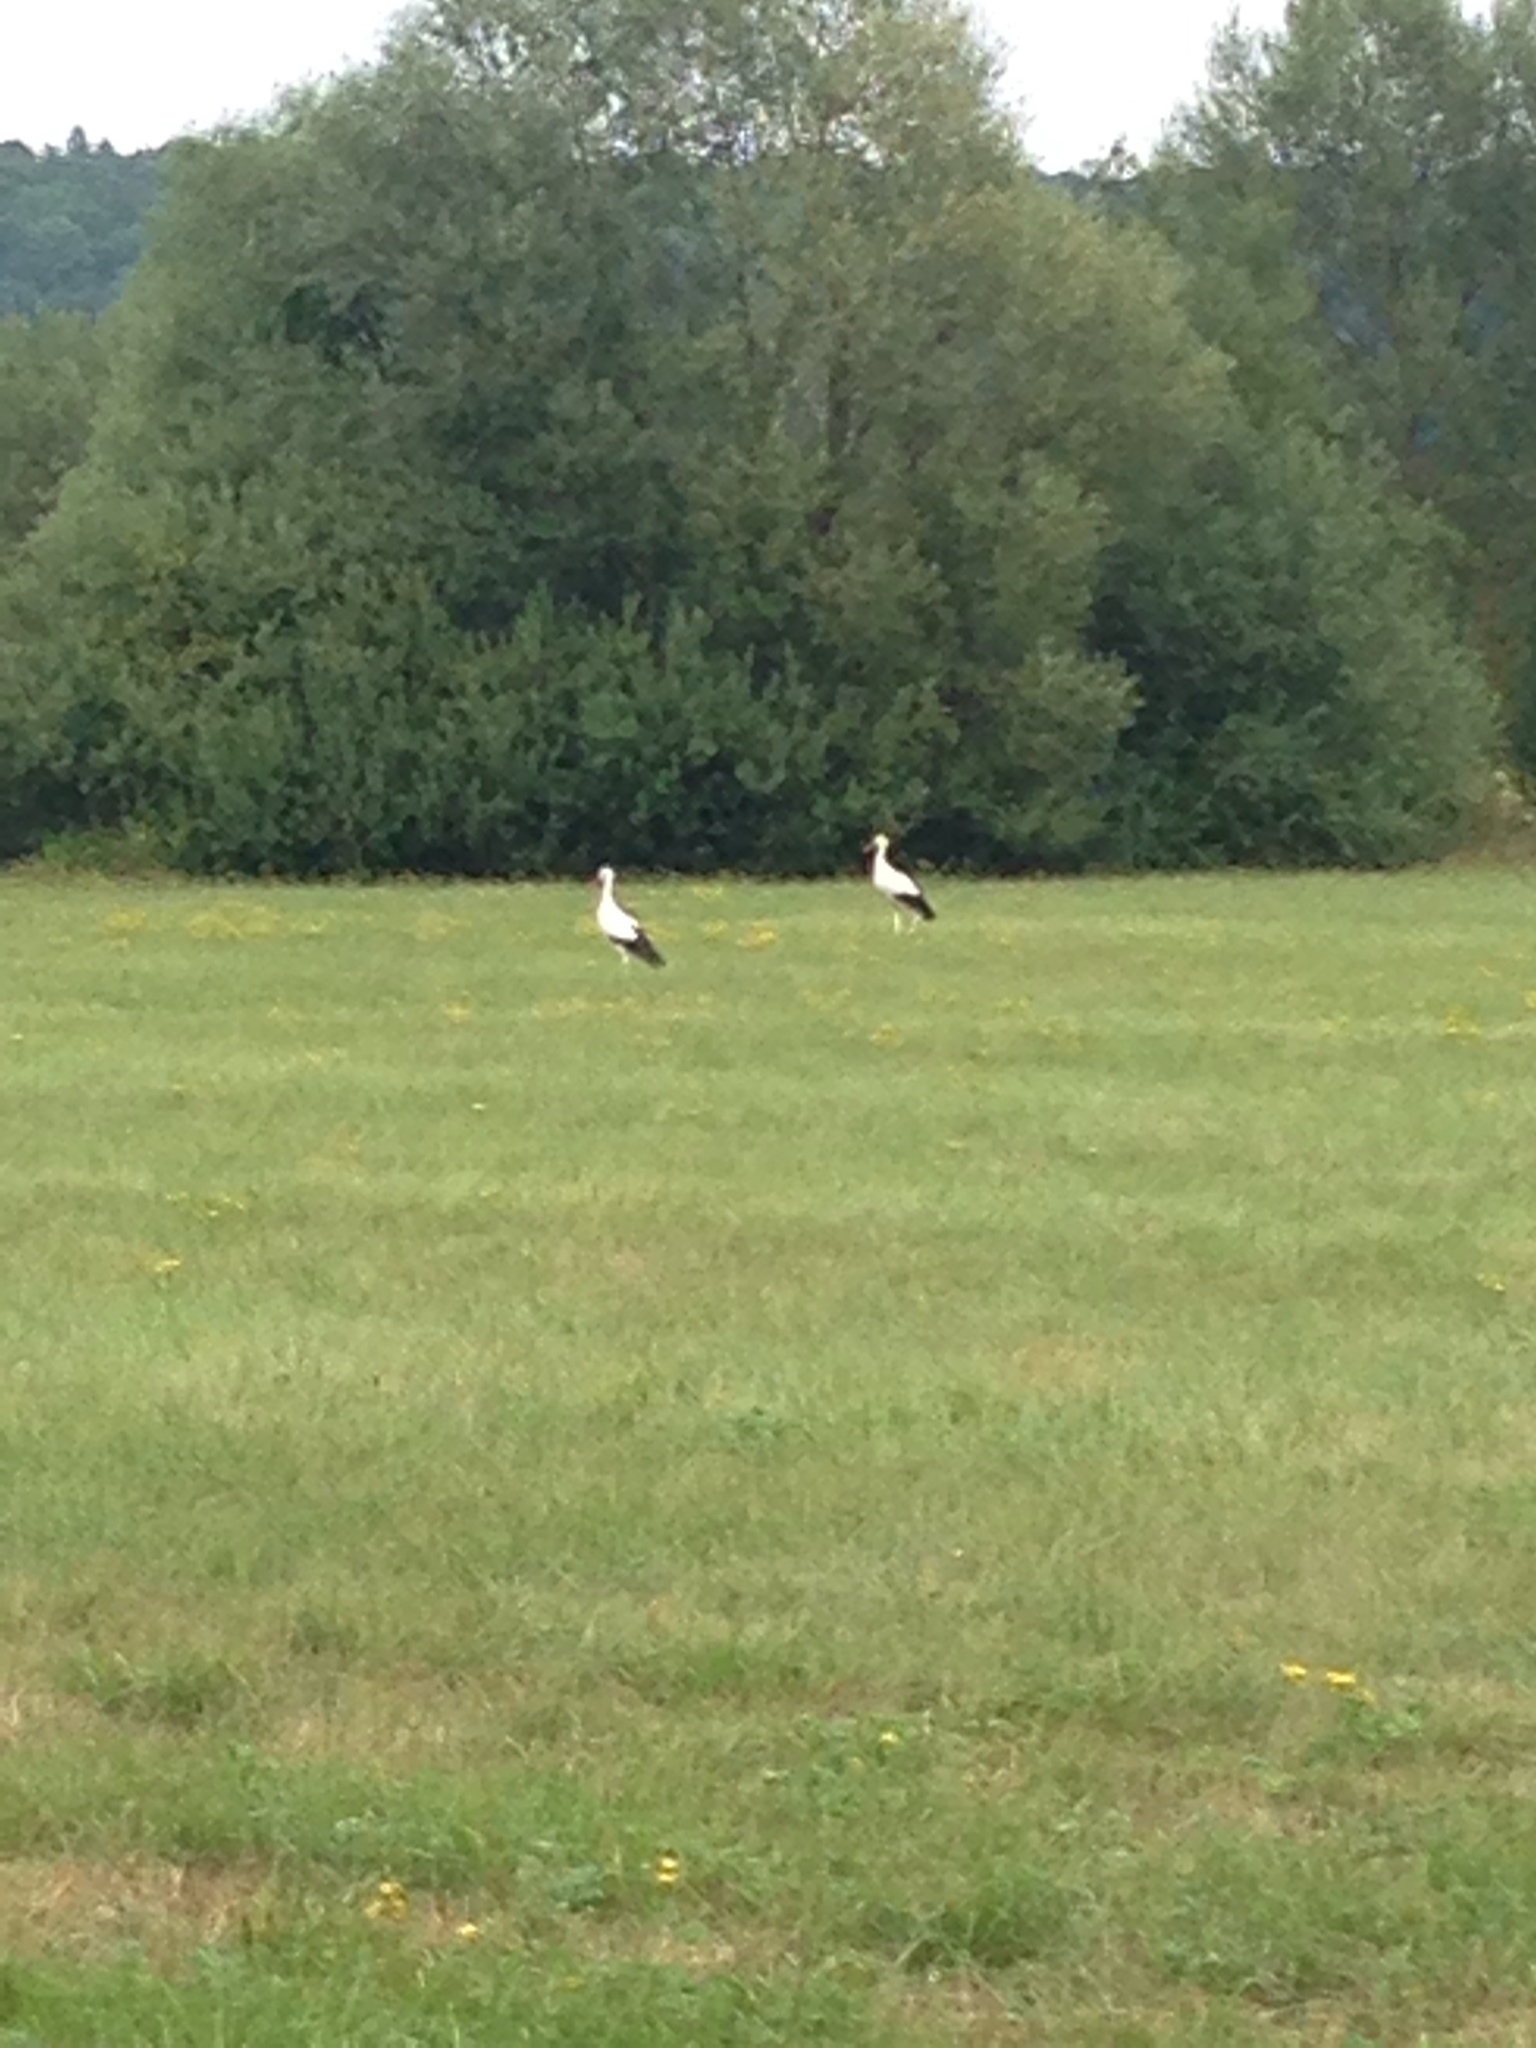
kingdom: Animalia
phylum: Chordata
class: Aves
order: Ciconiiformes
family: Ciconiidae
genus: Ciconia
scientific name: Ciconia ciconia
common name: White stork
